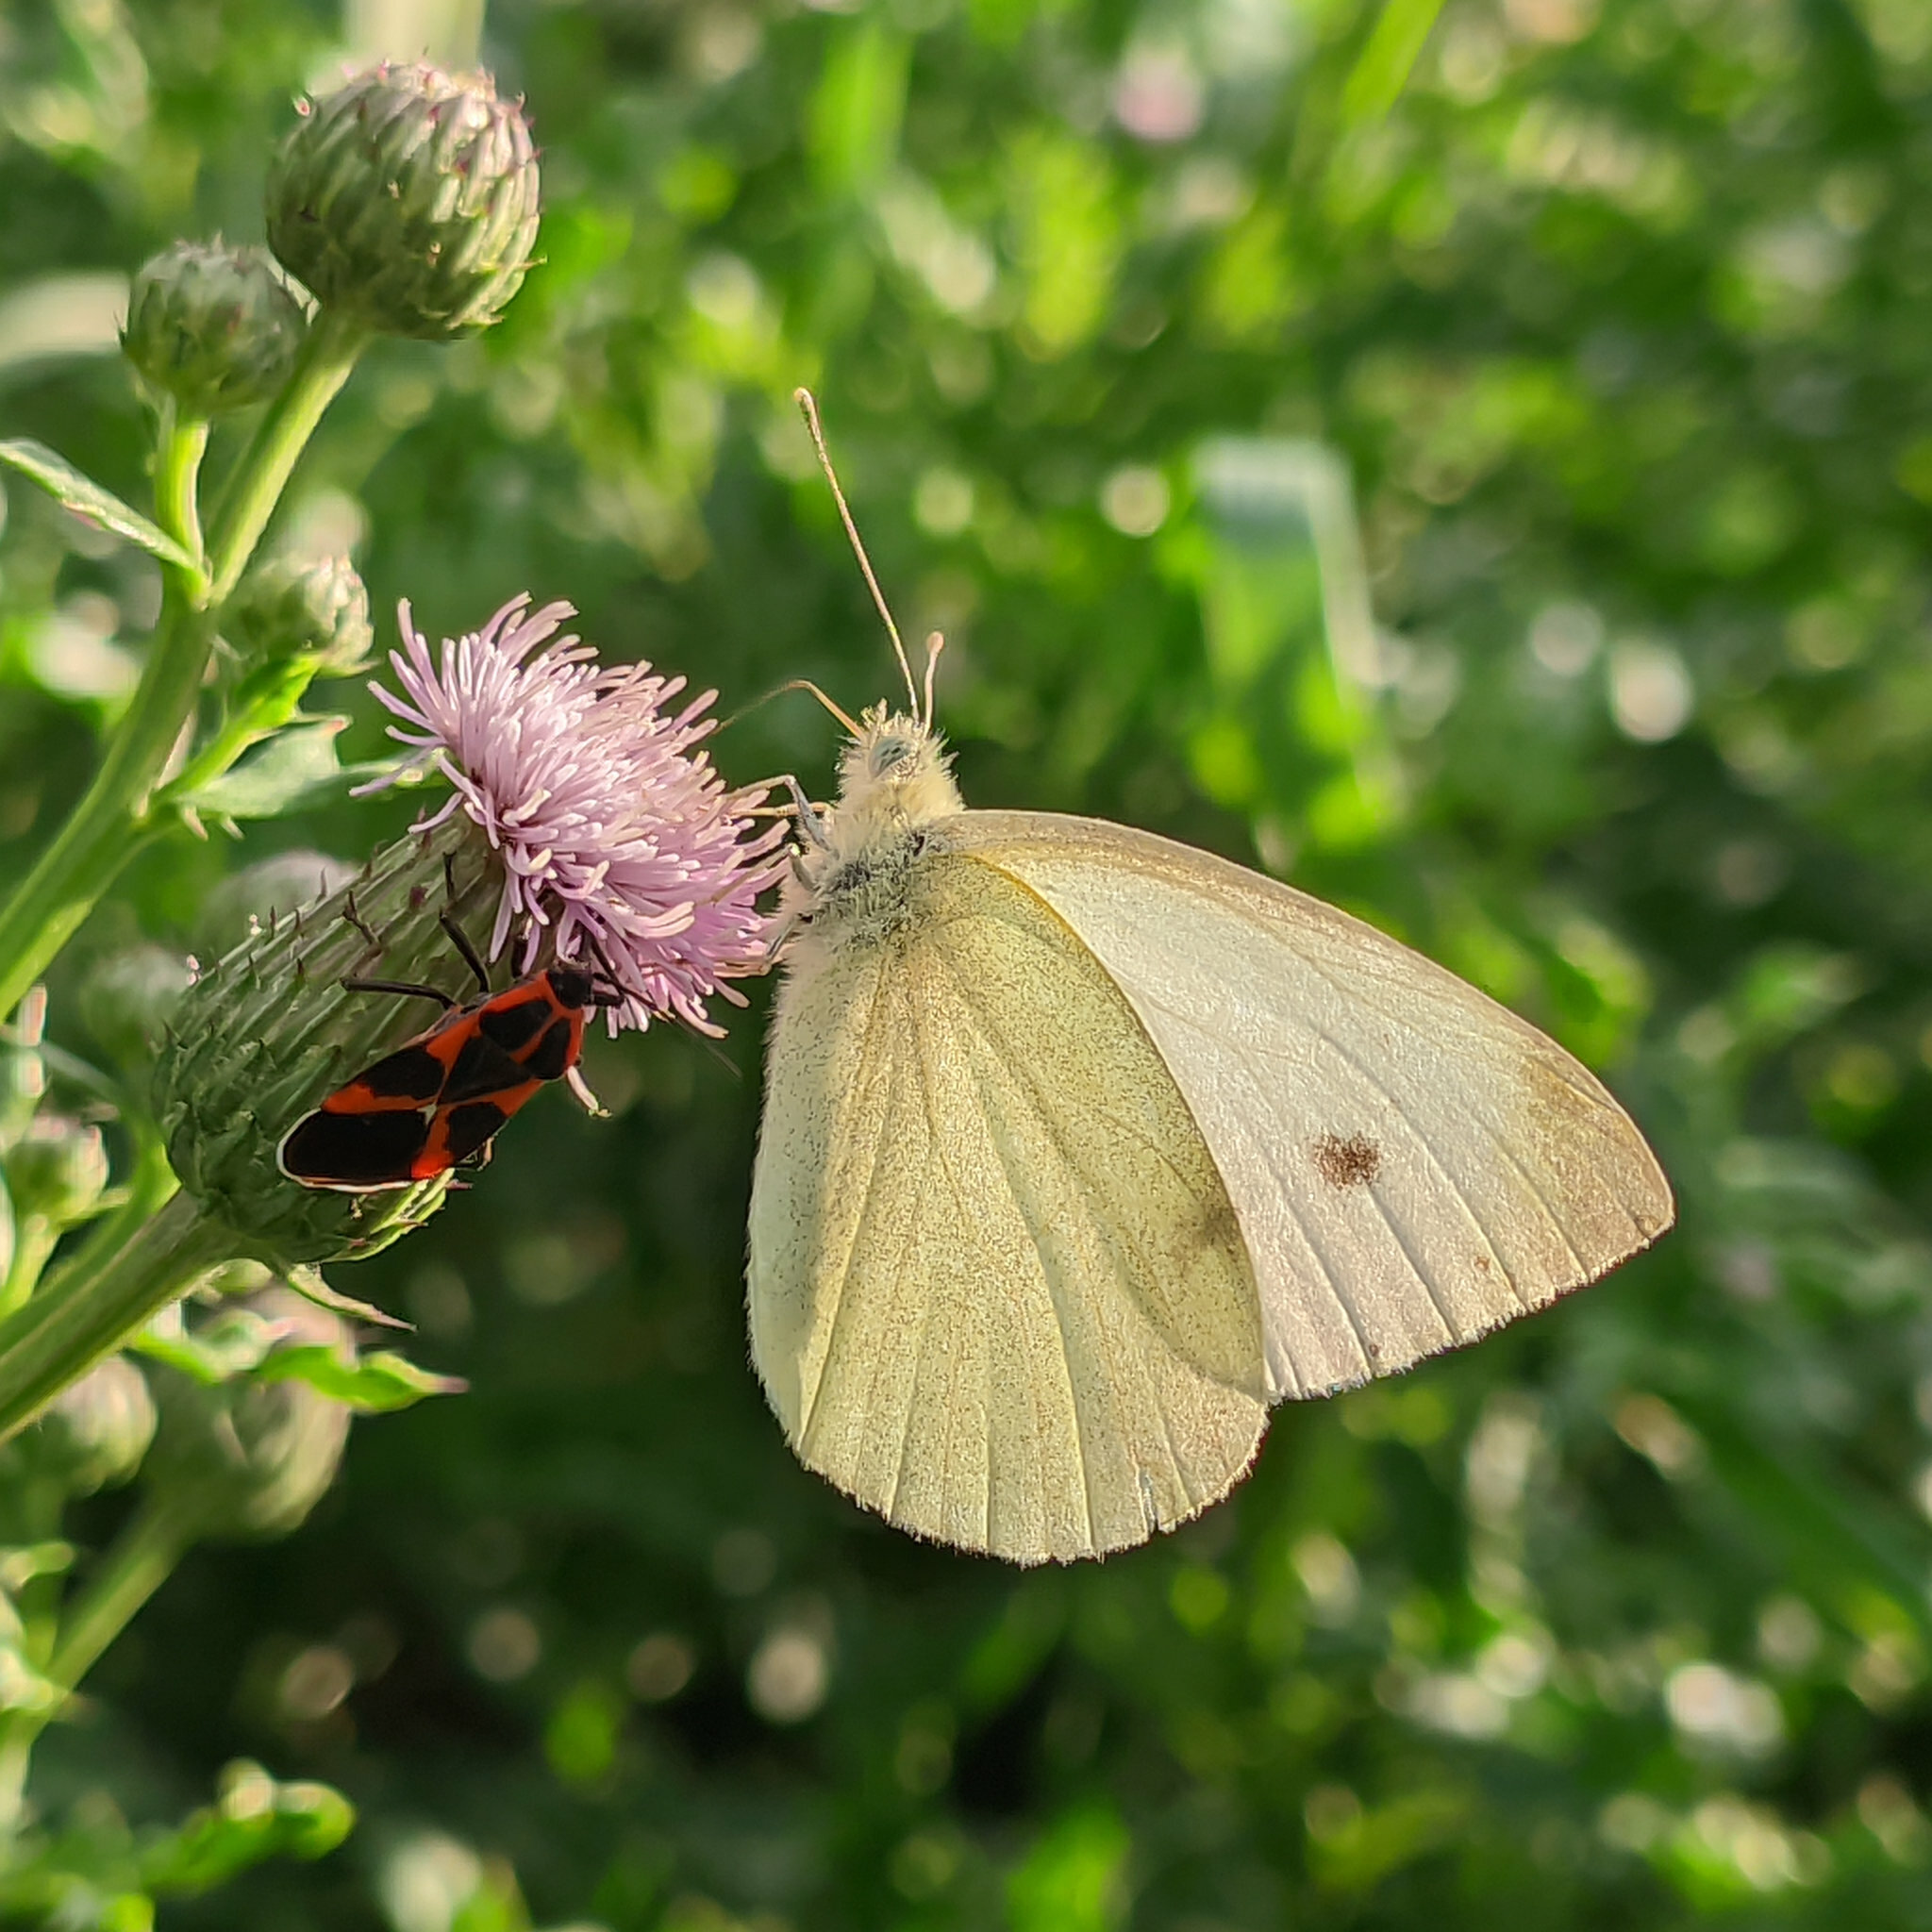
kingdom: Animalia
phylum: Arthropoda
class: Insecta
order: Lepidoptera
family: Pieridae
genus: Pieris
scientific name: Pieris rapae
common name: Small white
